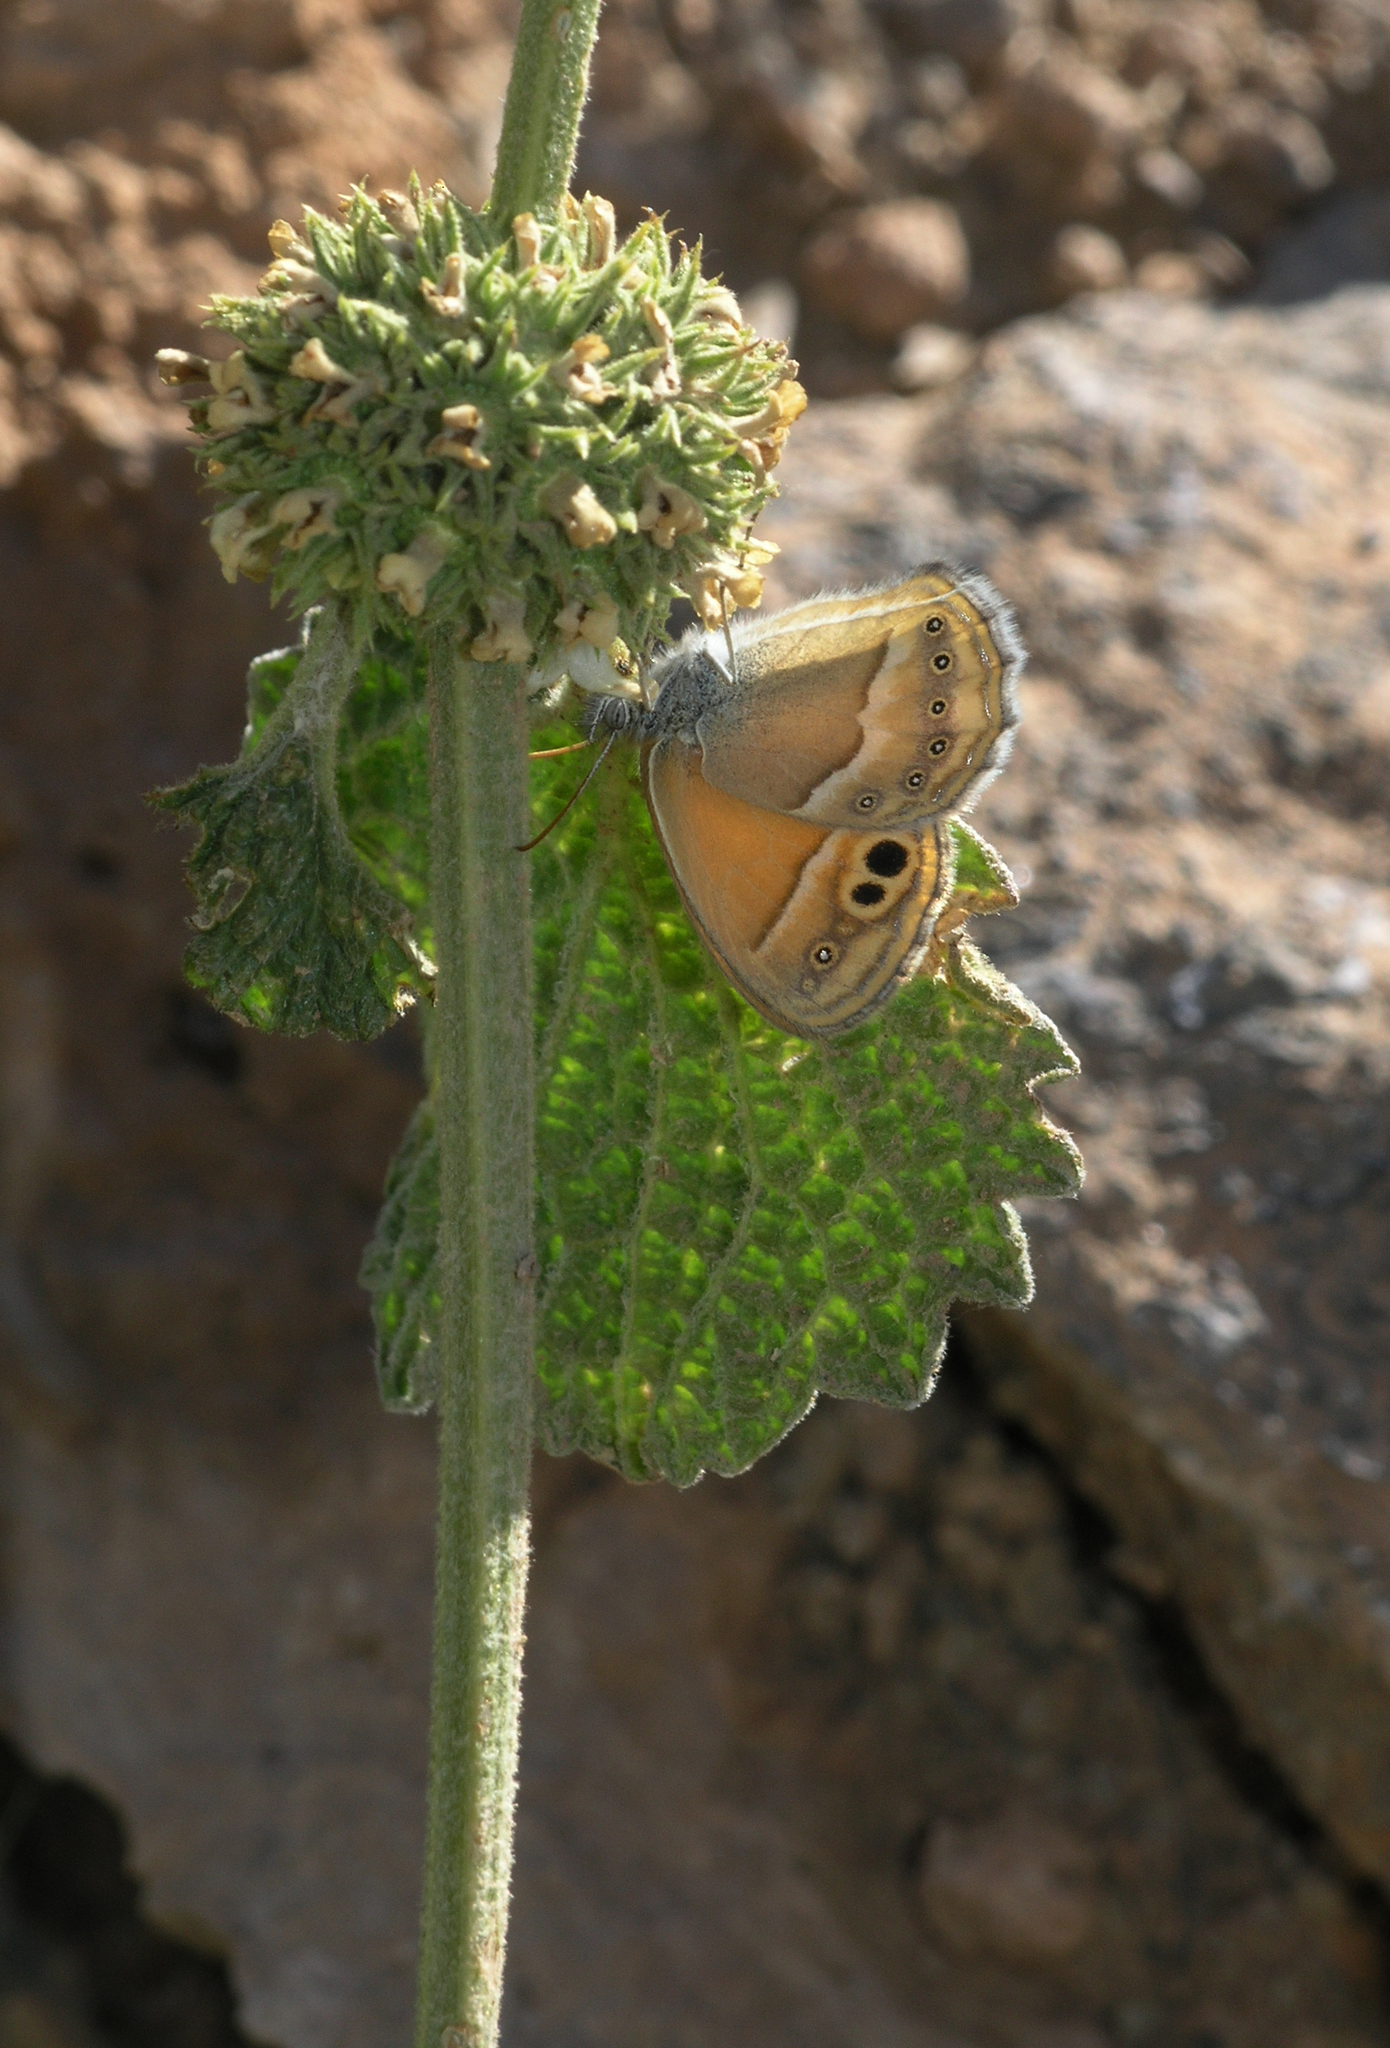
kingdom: Animalia
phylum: Arthropoda
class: Insecta
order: Lepidoptera
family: Nymphalidae
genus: Coenonympha
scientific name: Coenonympha saadi
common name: Small heath
